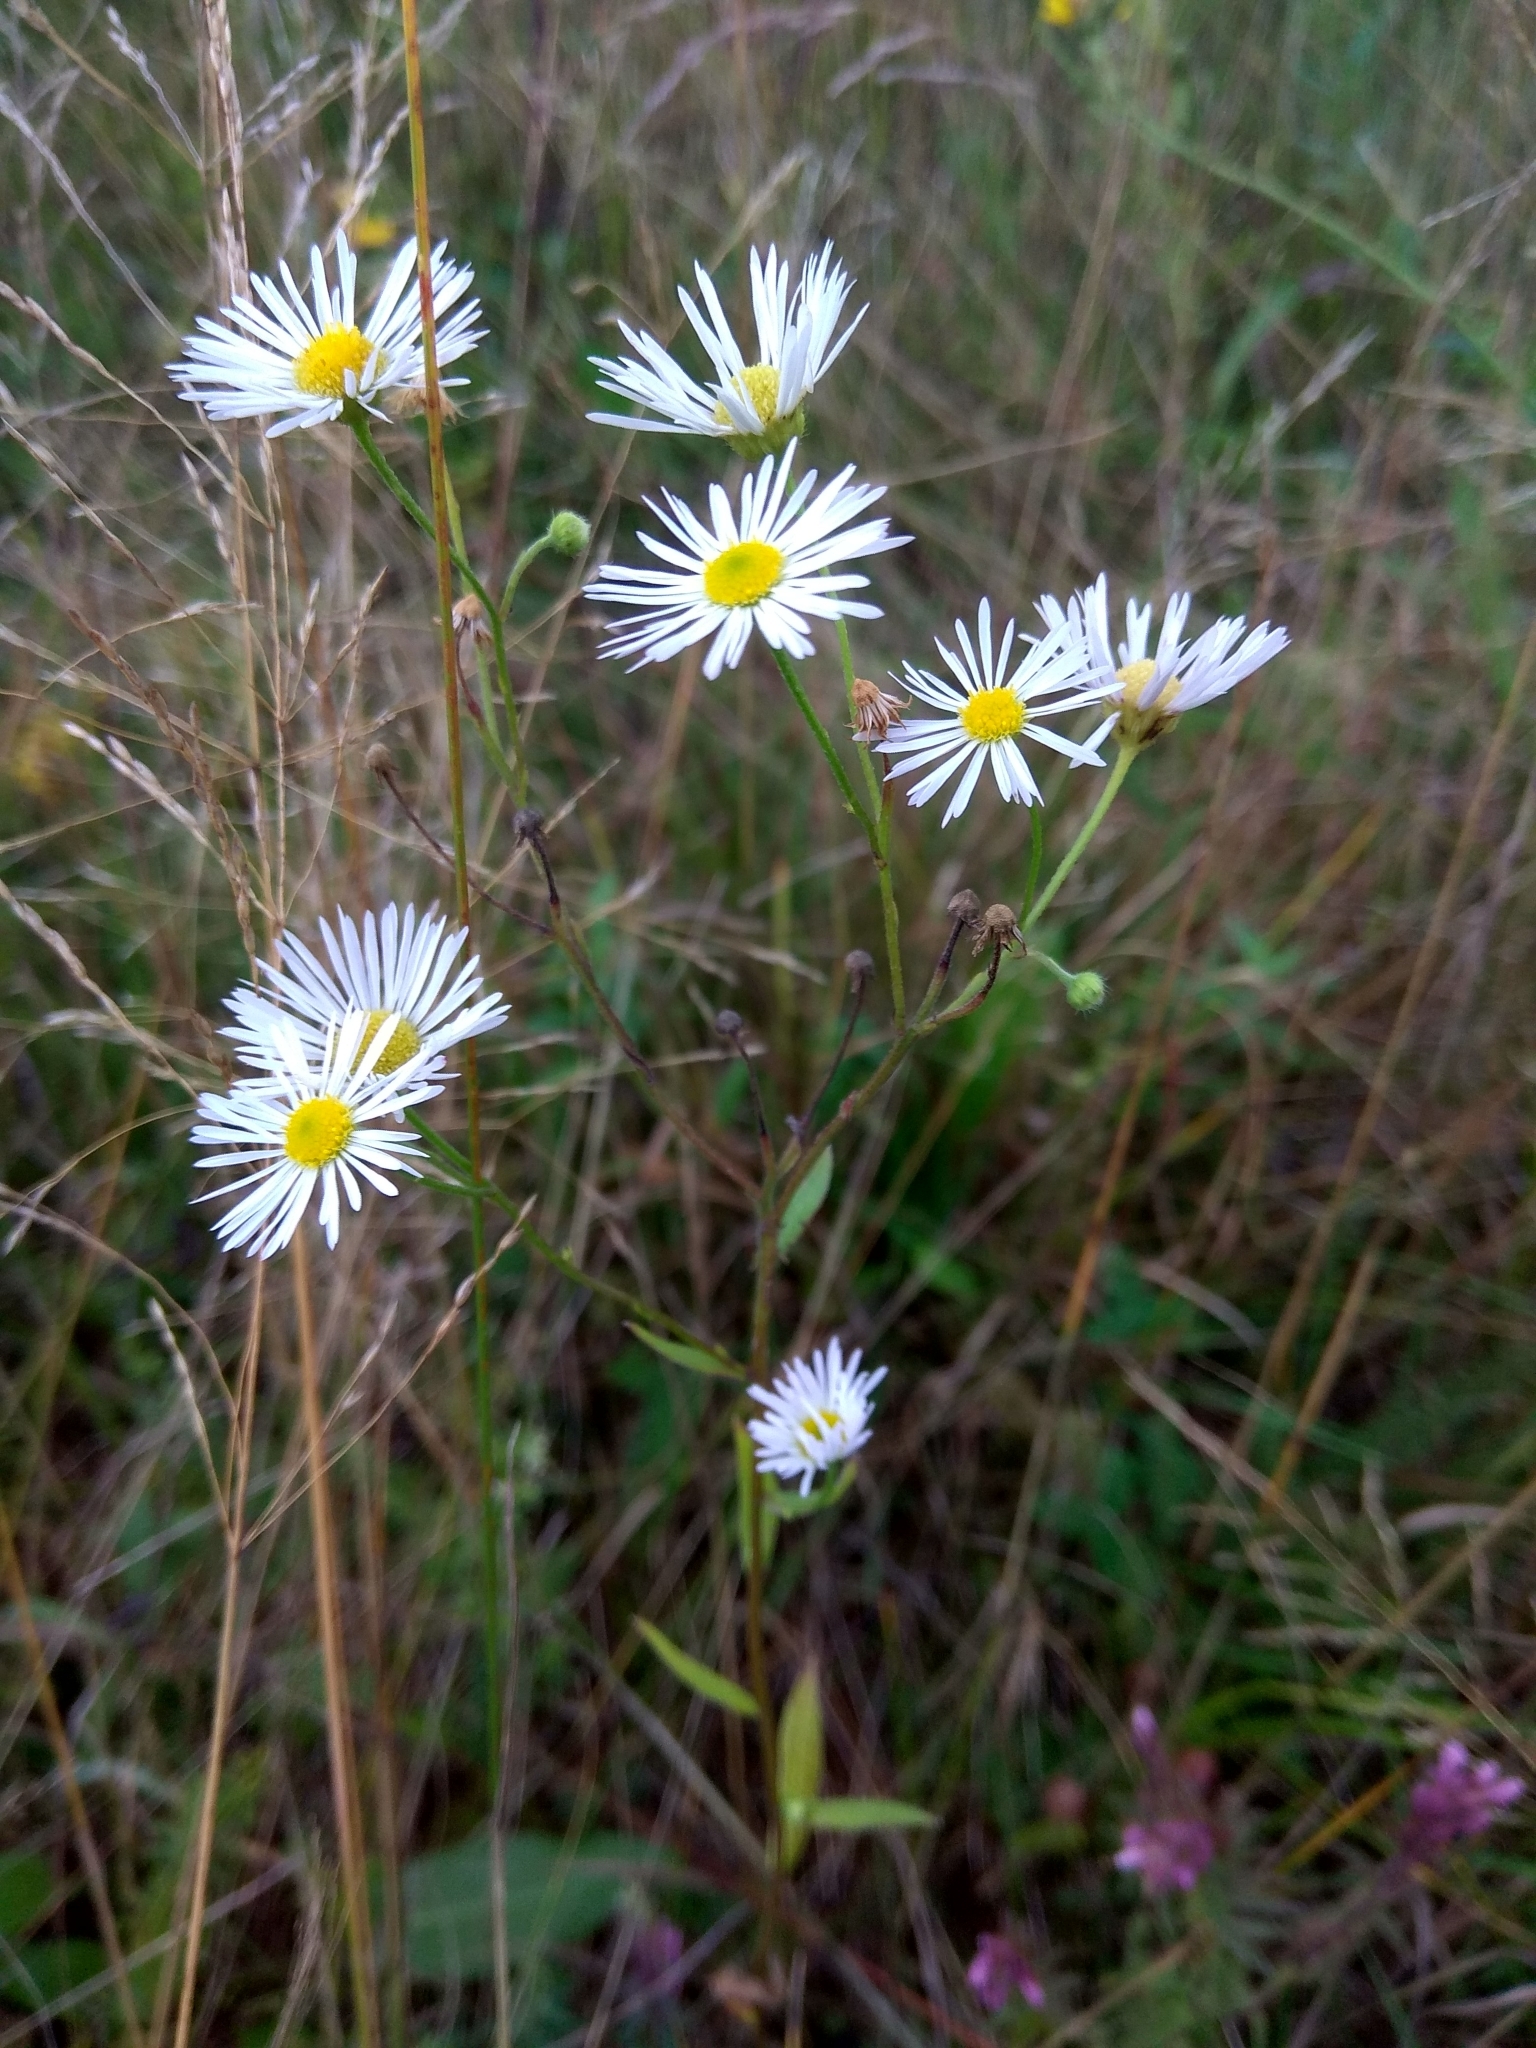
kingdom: Plantae
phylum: Tracheophyta
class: Magnoliopsida
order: Asterales
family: Asteraceae
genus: Erigeron
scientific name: Erigeron annuus
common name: Tall fleabane
